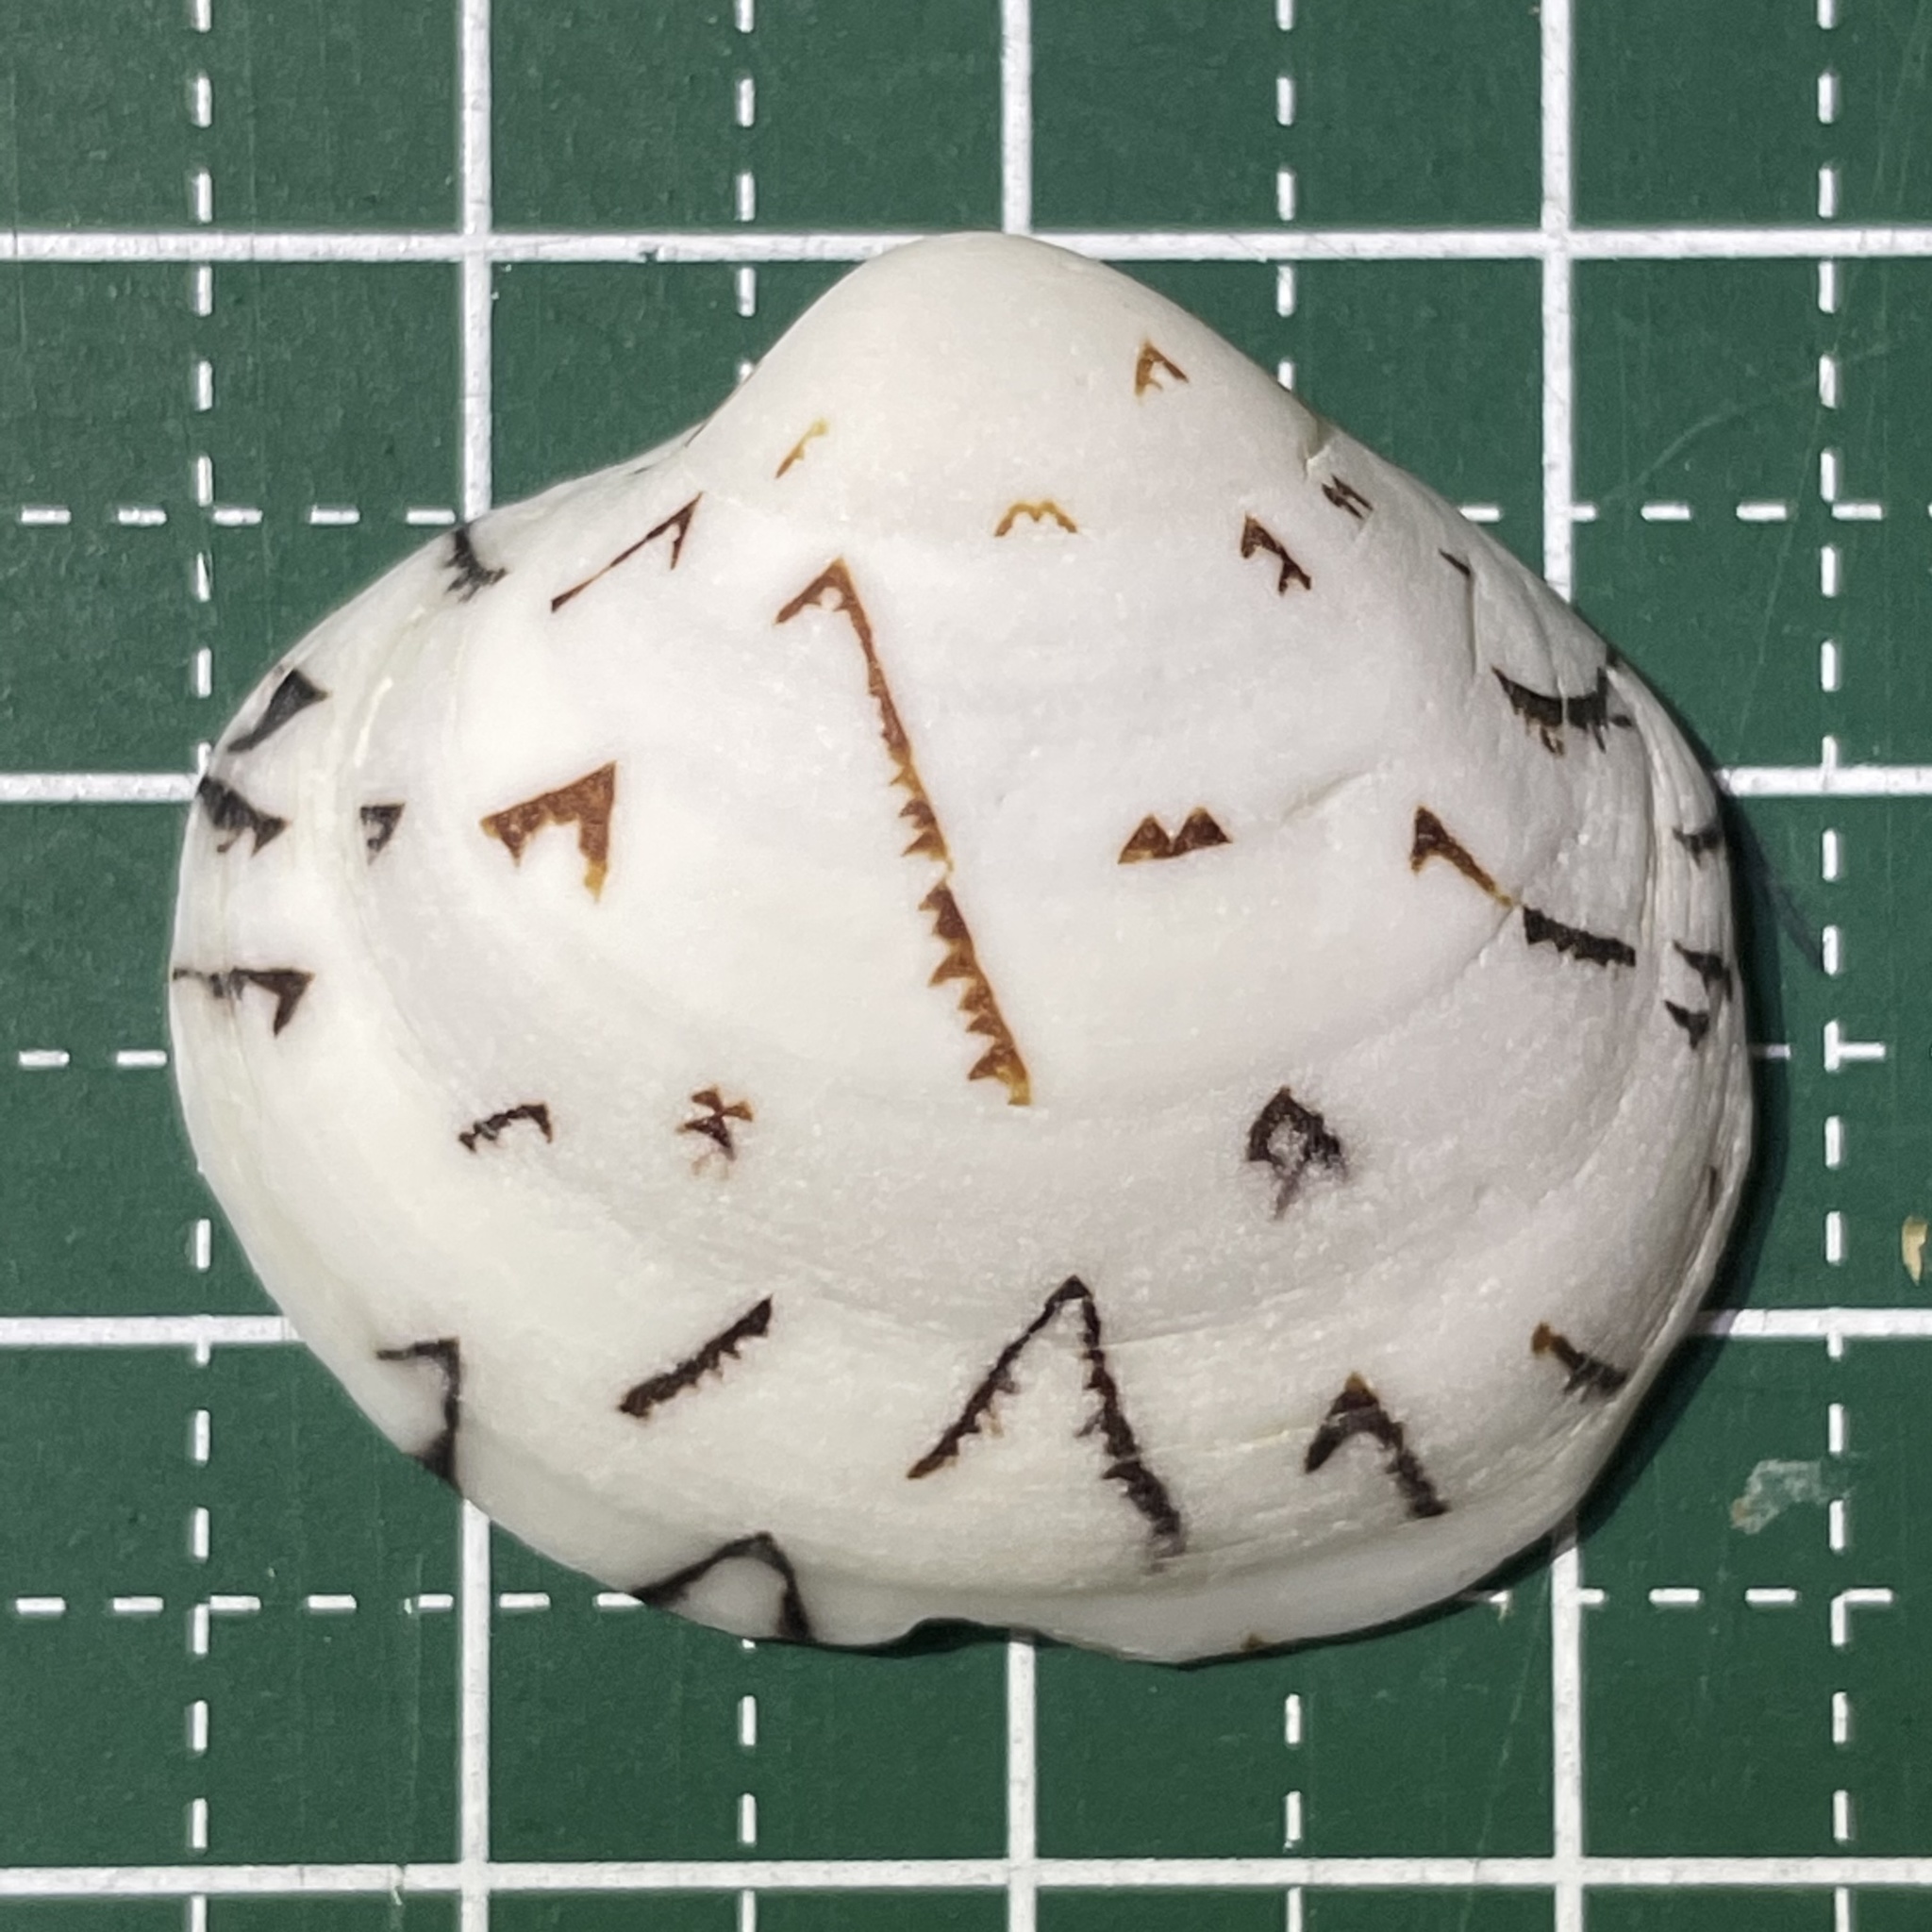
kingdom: Animalia
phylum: Mollusca
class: Bivalvia
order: Venerida
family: Veneridae
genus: Lioconcha
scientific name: Lioconcha castrensis
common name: Camp pitar-venus
